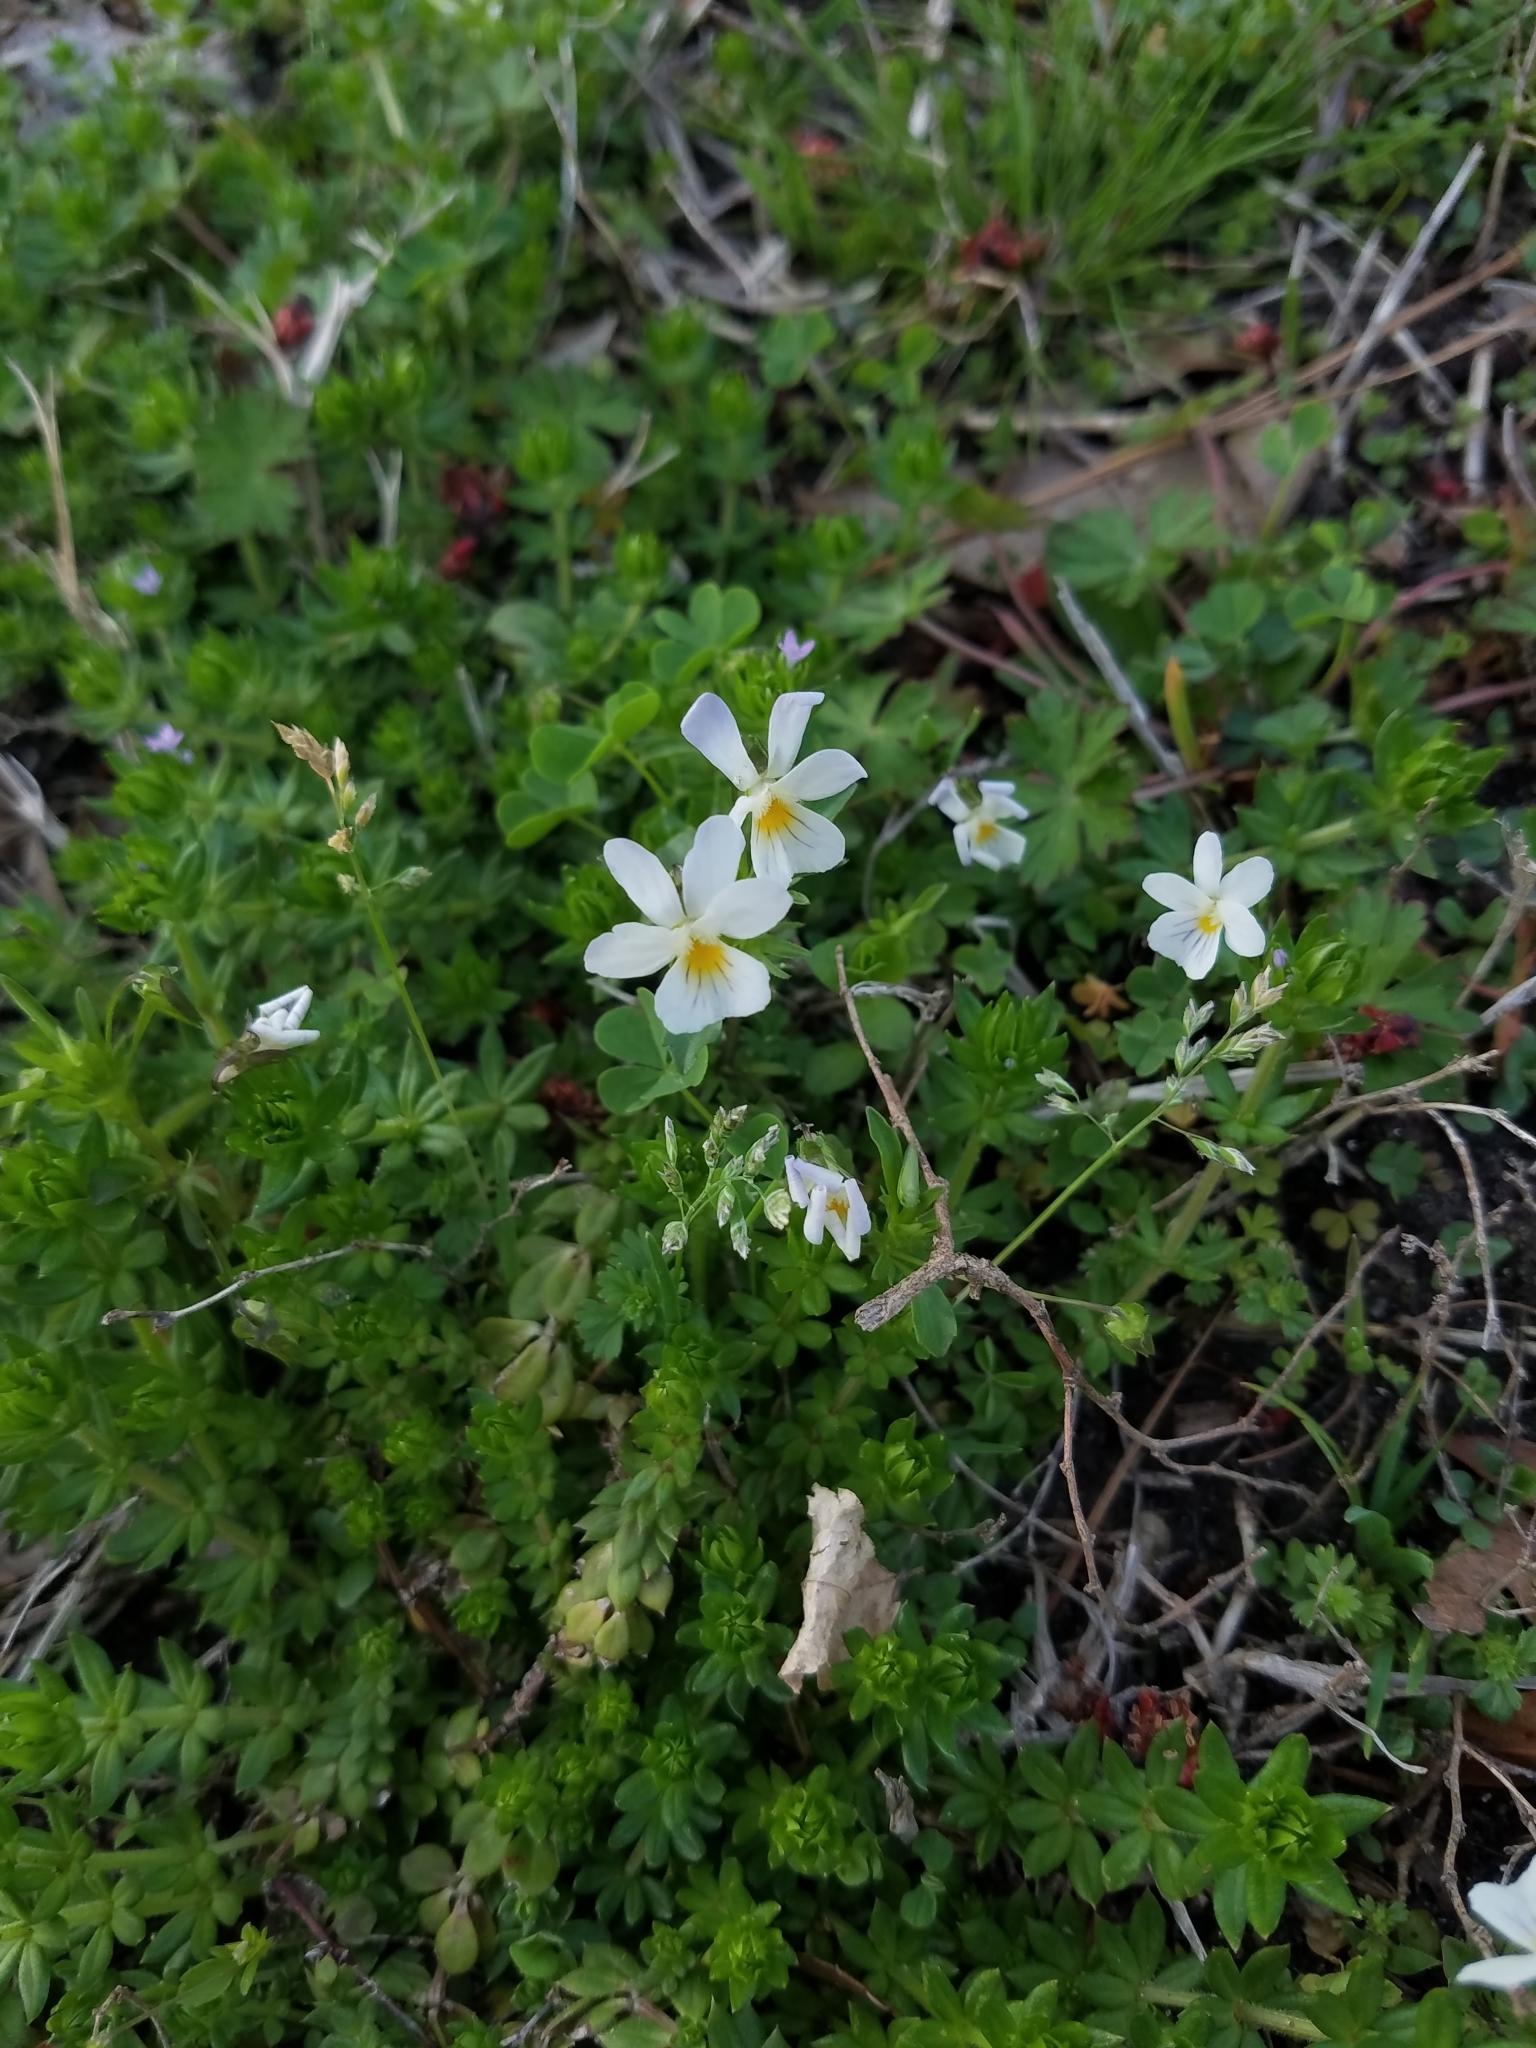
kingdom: Plantae
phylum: Tracheophyta
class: Magnoliopsida
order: Malpighiales
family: Violaceae
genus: Viola
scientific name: Viola rafinesquei
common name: American field pansy
